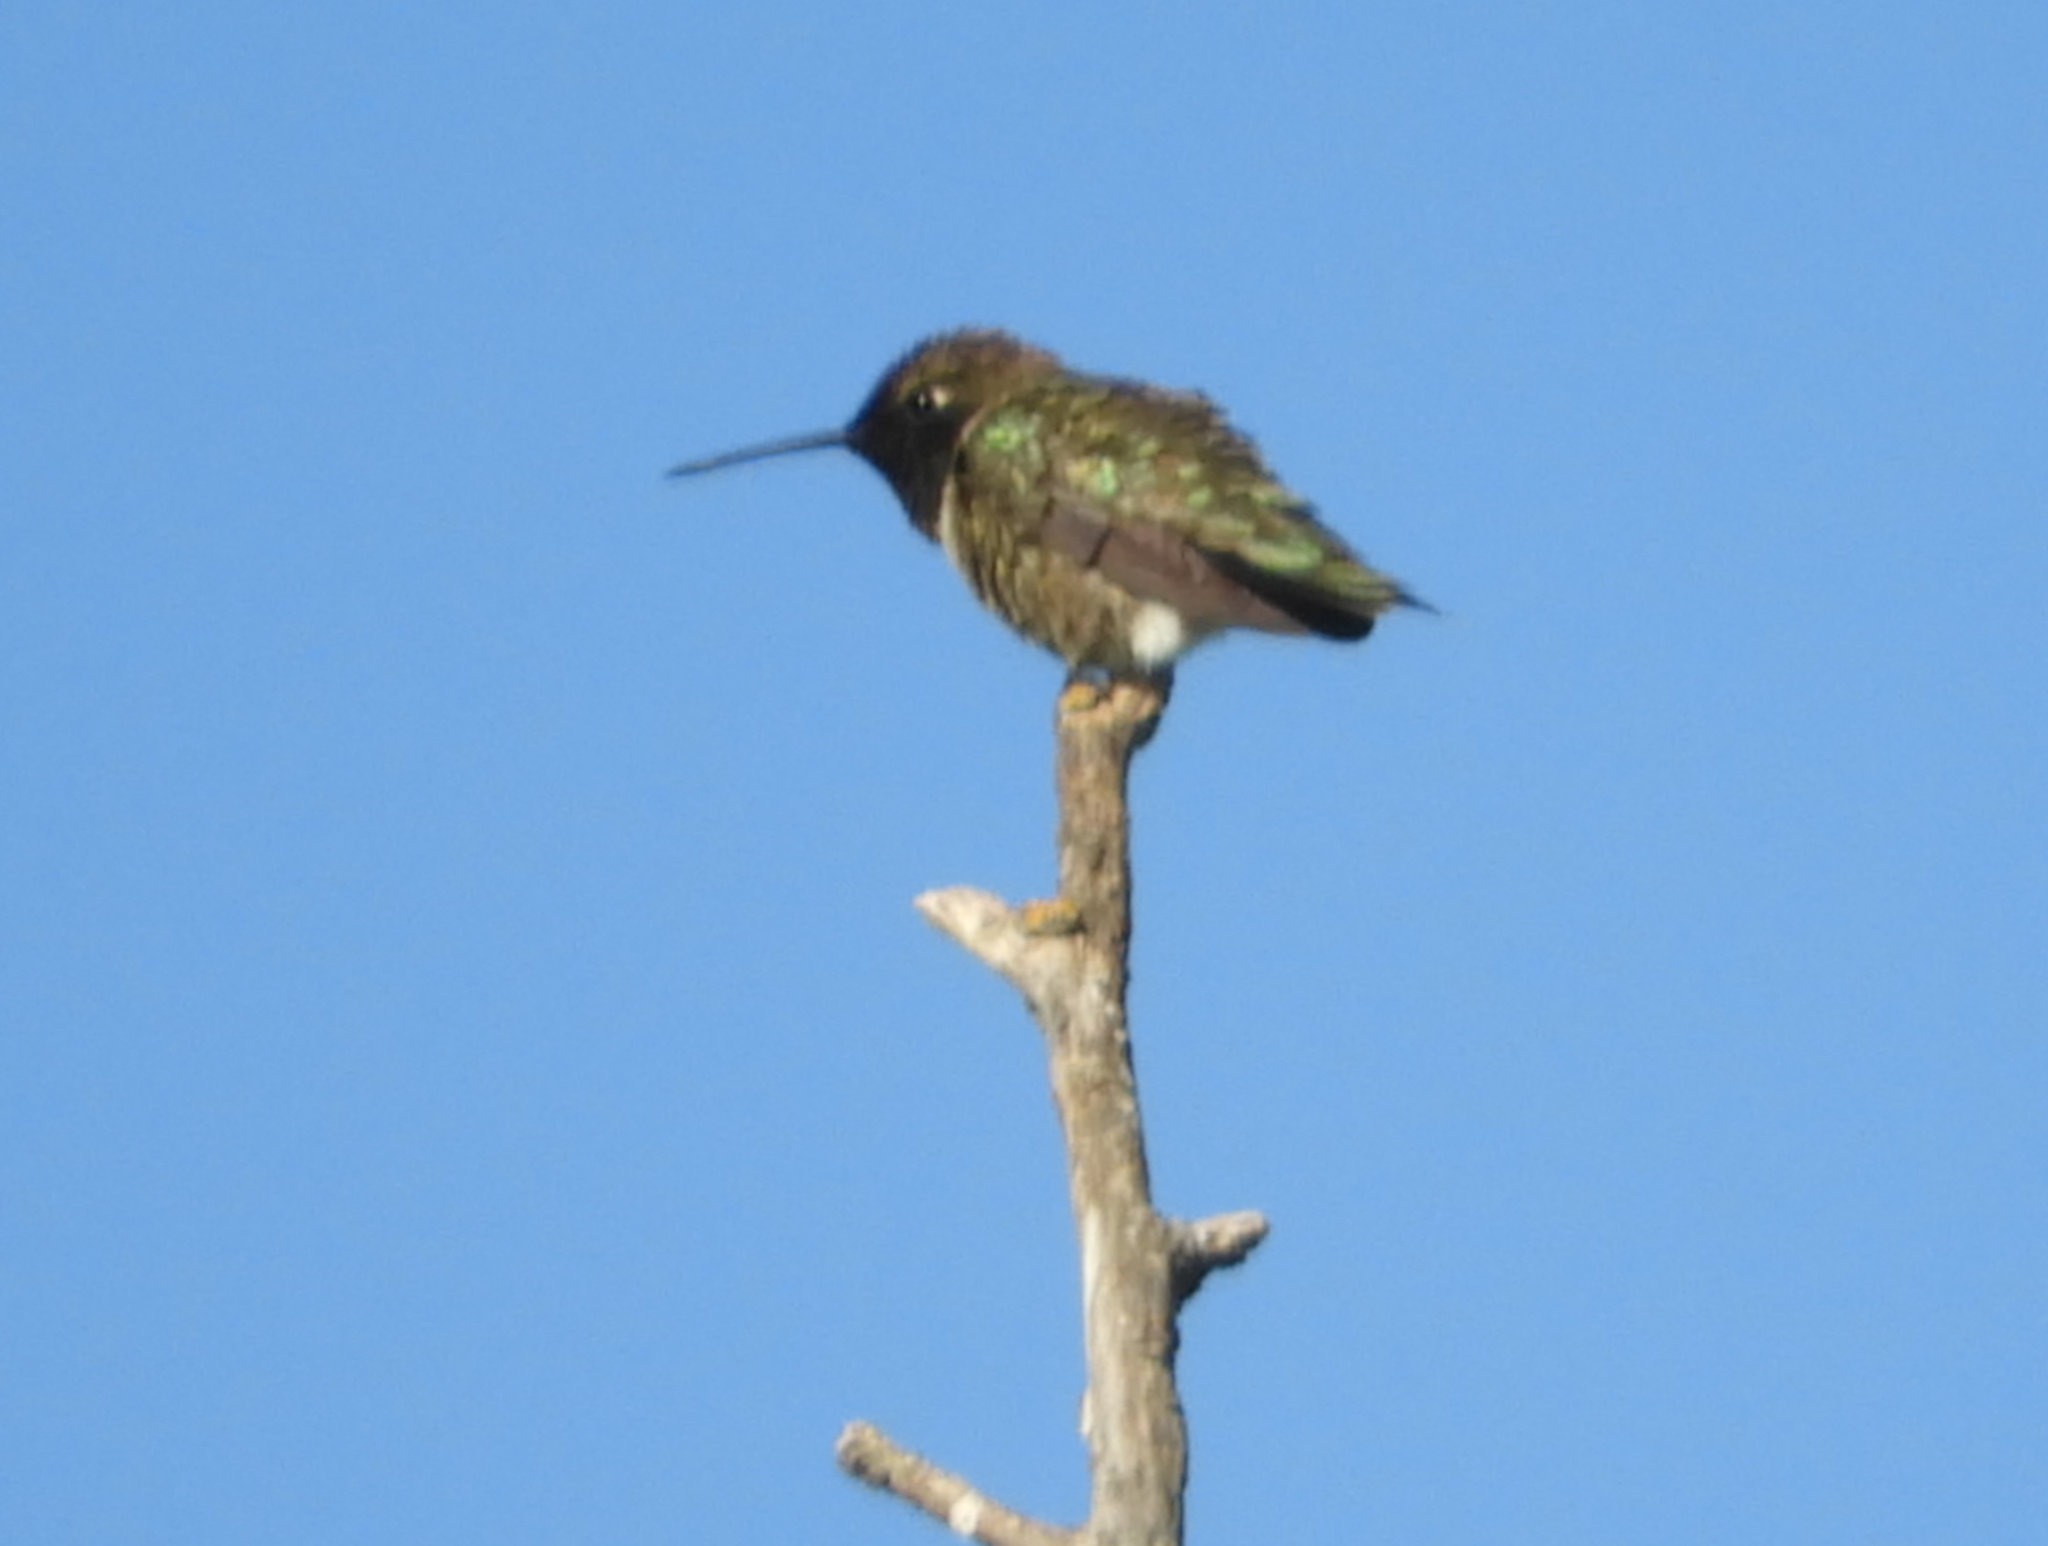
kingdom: Animalia
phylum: Chordata
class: Aves
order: Apodiformes
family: Trochilidae
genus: Archilochus
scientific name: Archilochus alexandri
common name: Black-chinned hummingbird
